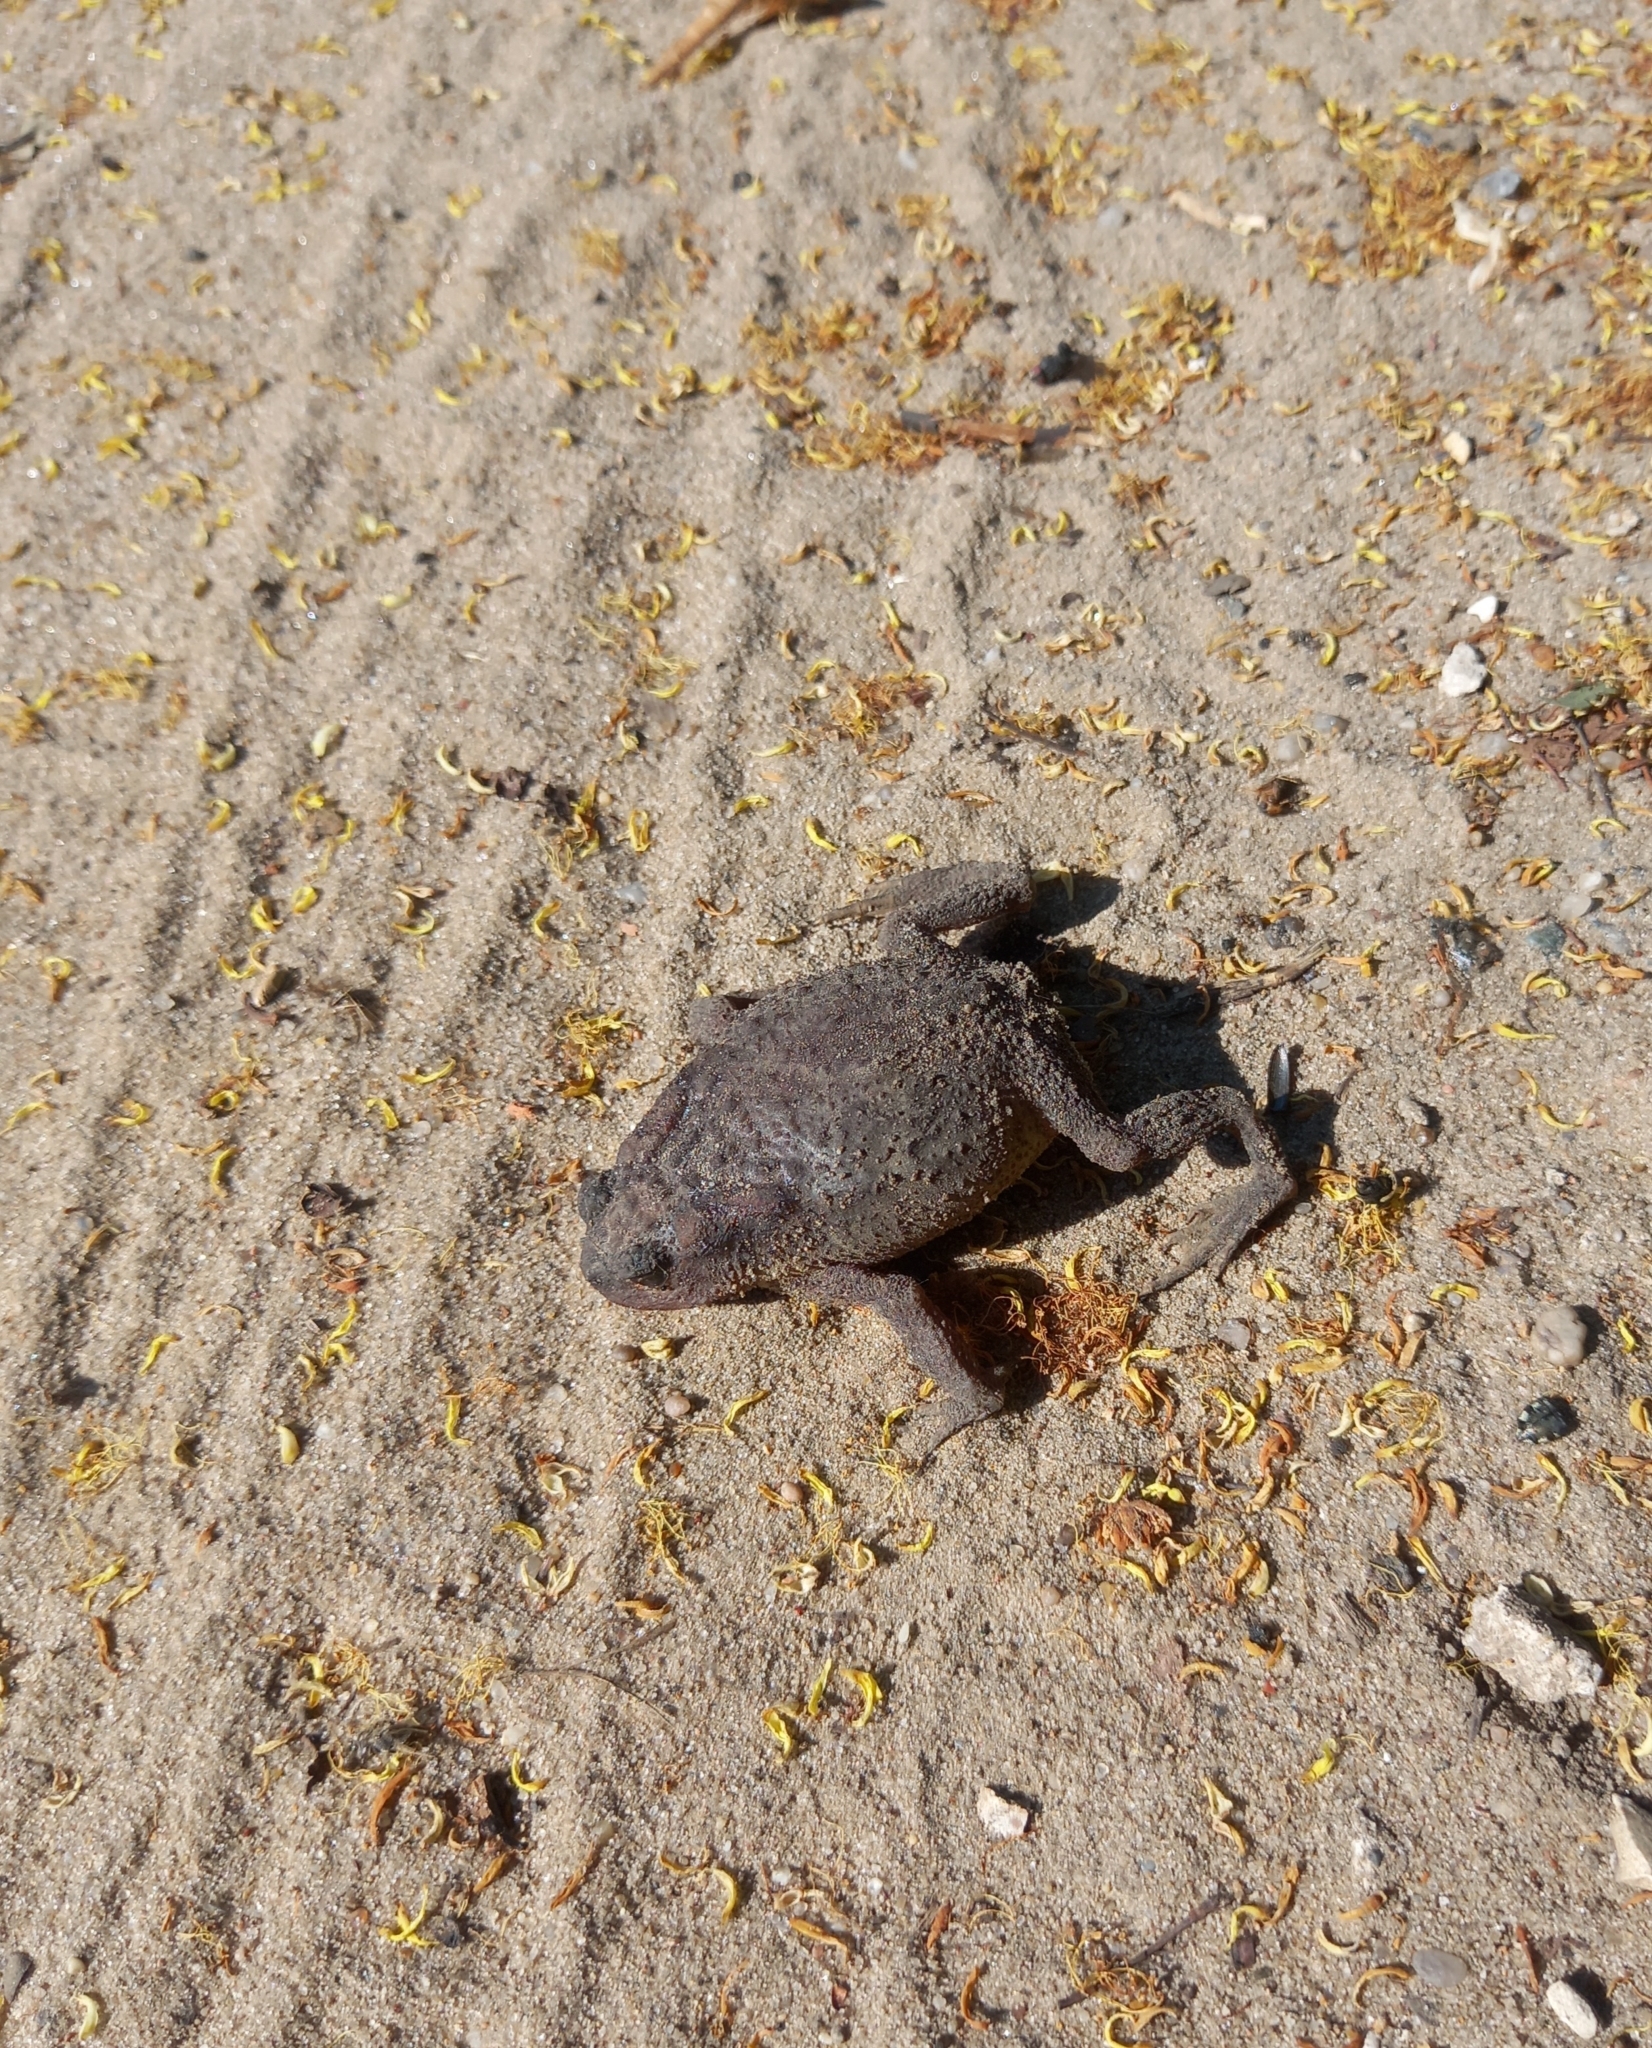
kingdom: Animalia
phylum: Chordata
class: Amphibia
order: Anura
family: Bufonidae
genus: Bufo
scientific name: Bufo bufo
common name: Common toad
